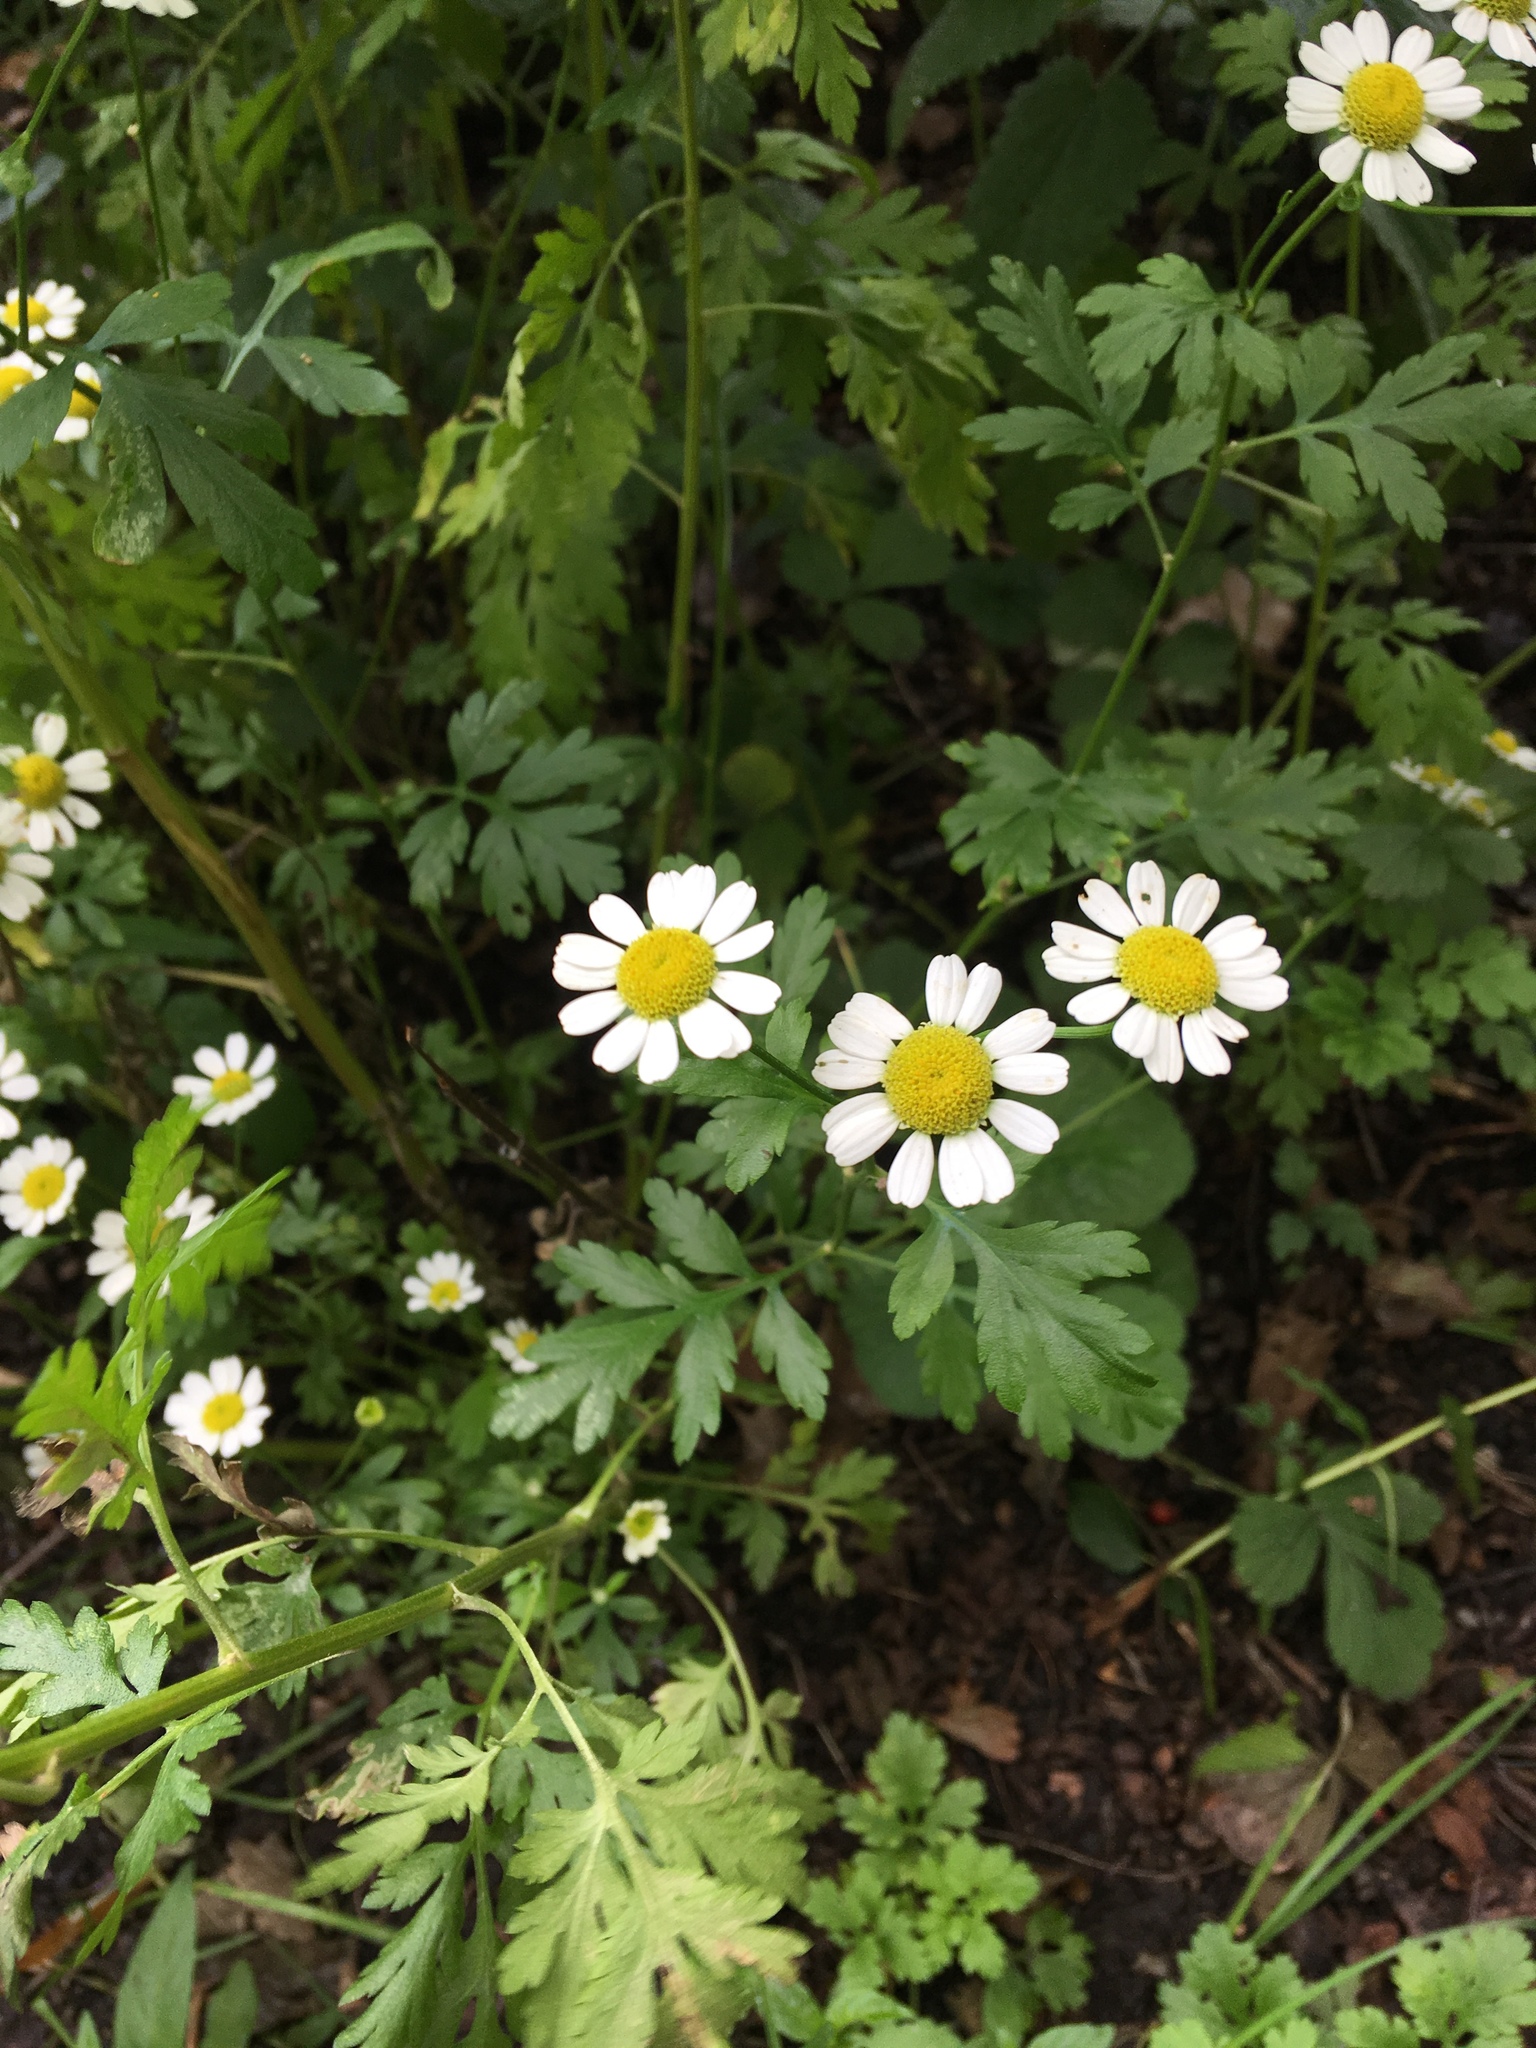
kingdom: Plantae
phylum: Tracheophyta
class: Magnoliopsida
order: Asterales
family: Asteraceae
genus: Tanacetum
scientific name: Tanacetum parthenium
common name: Feverfew
